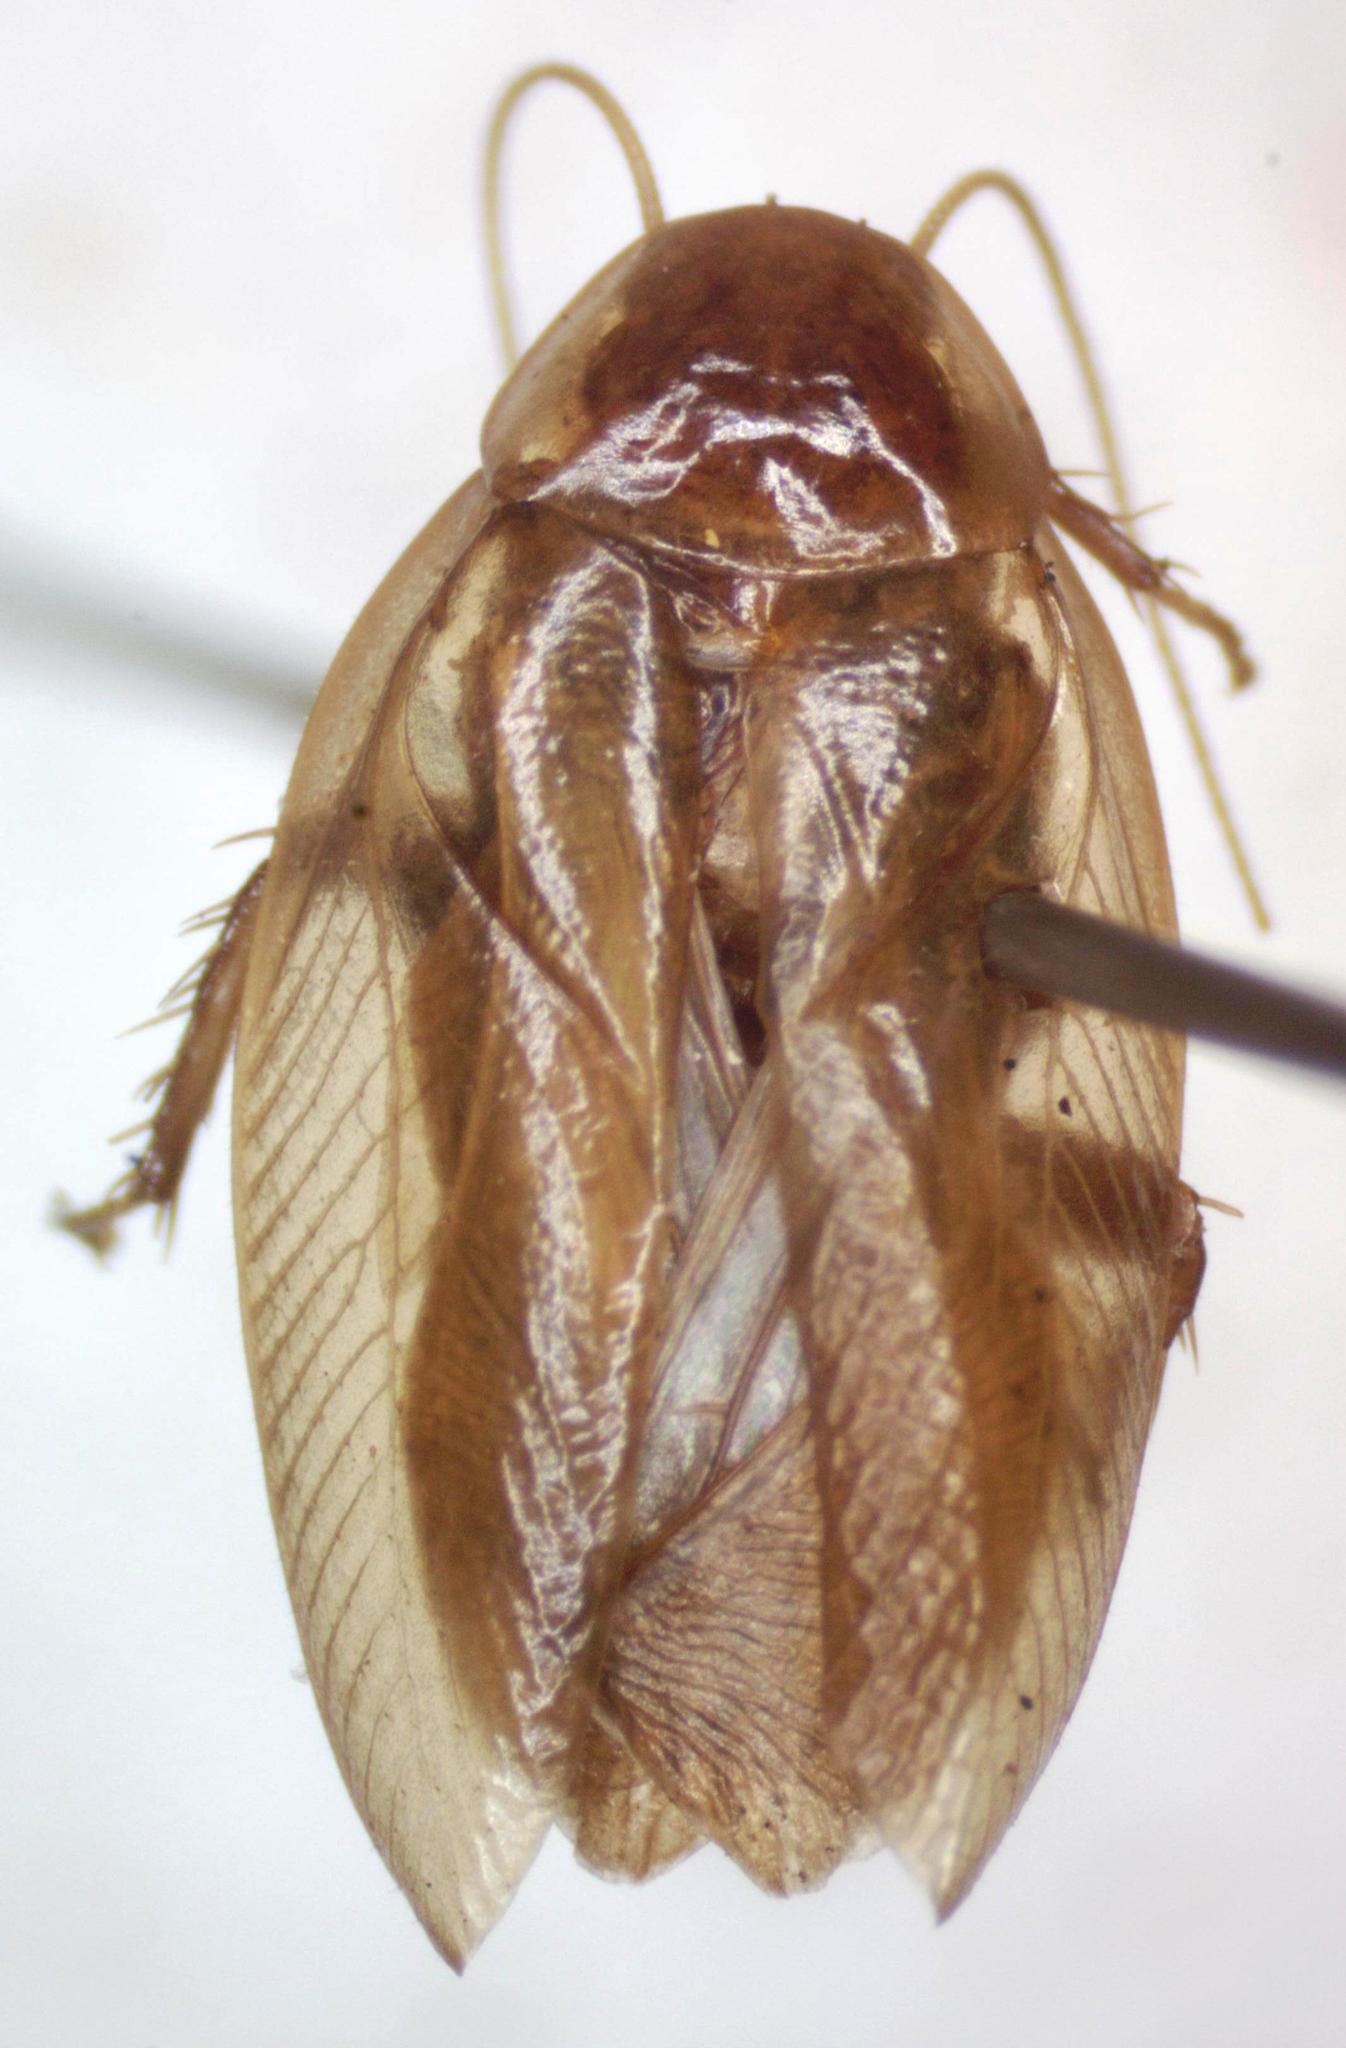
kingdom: Animalia
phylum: Arthropoda
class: Insecta
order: Blattodea
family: Ectobiidae
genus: Riatia
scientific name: Riatia fulgida
